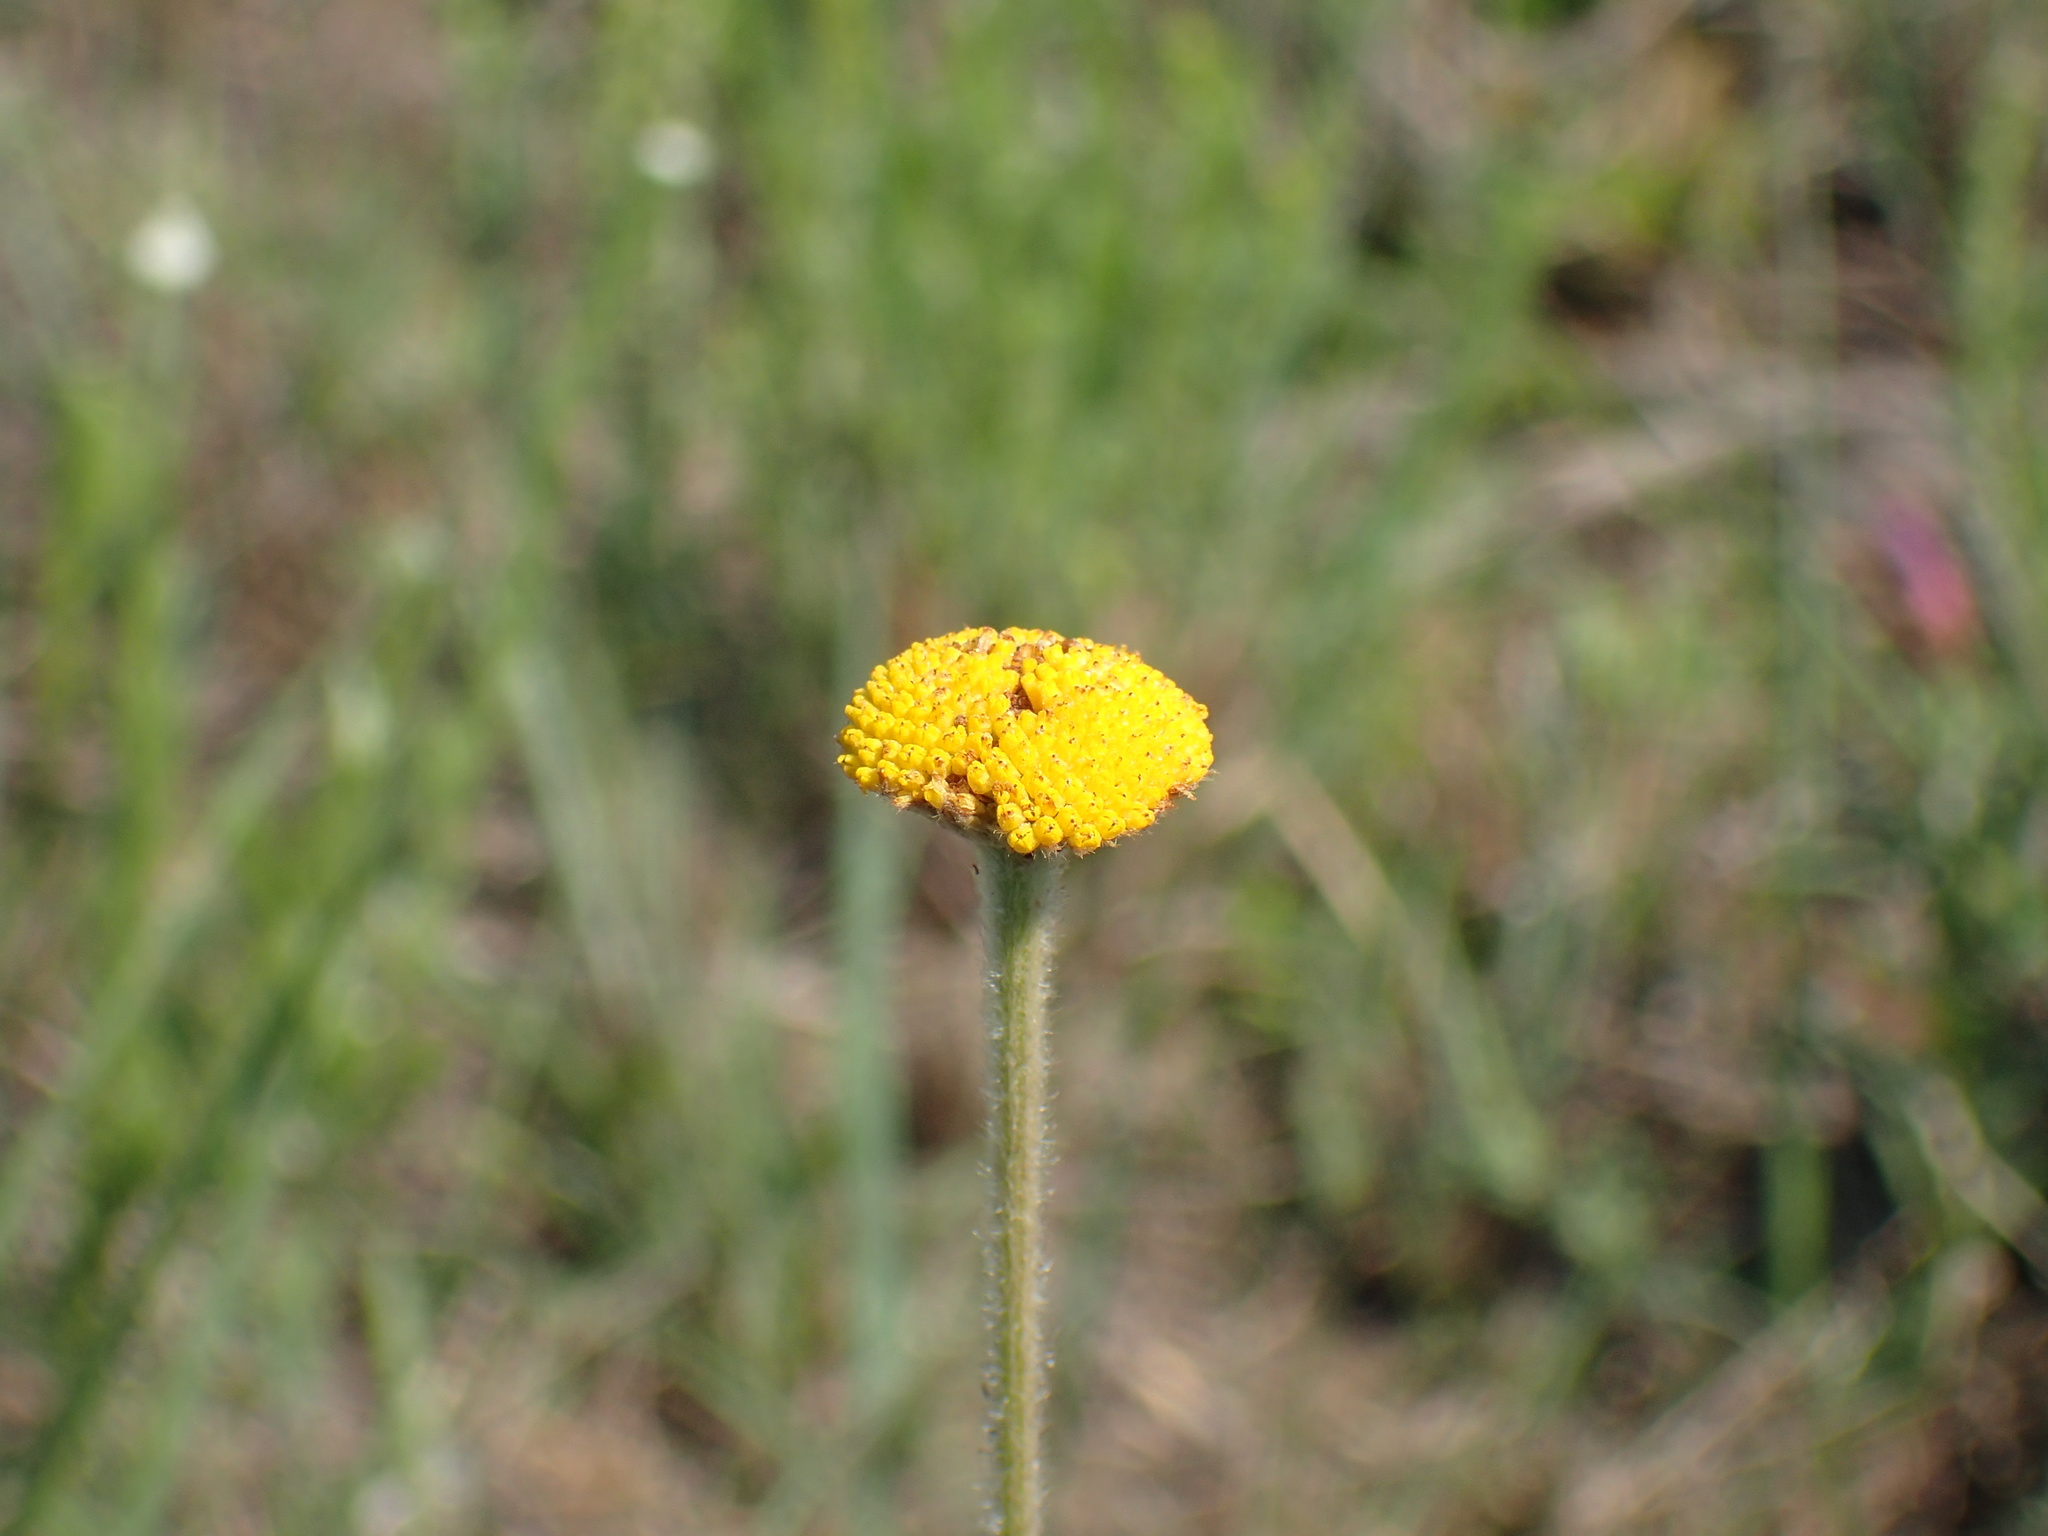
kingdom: Plantae
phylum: Tracheophyta
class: Magnoliopsida
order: Asterales
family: Asteraceae
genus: Schistostephium
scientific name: Schistostephium griseum
